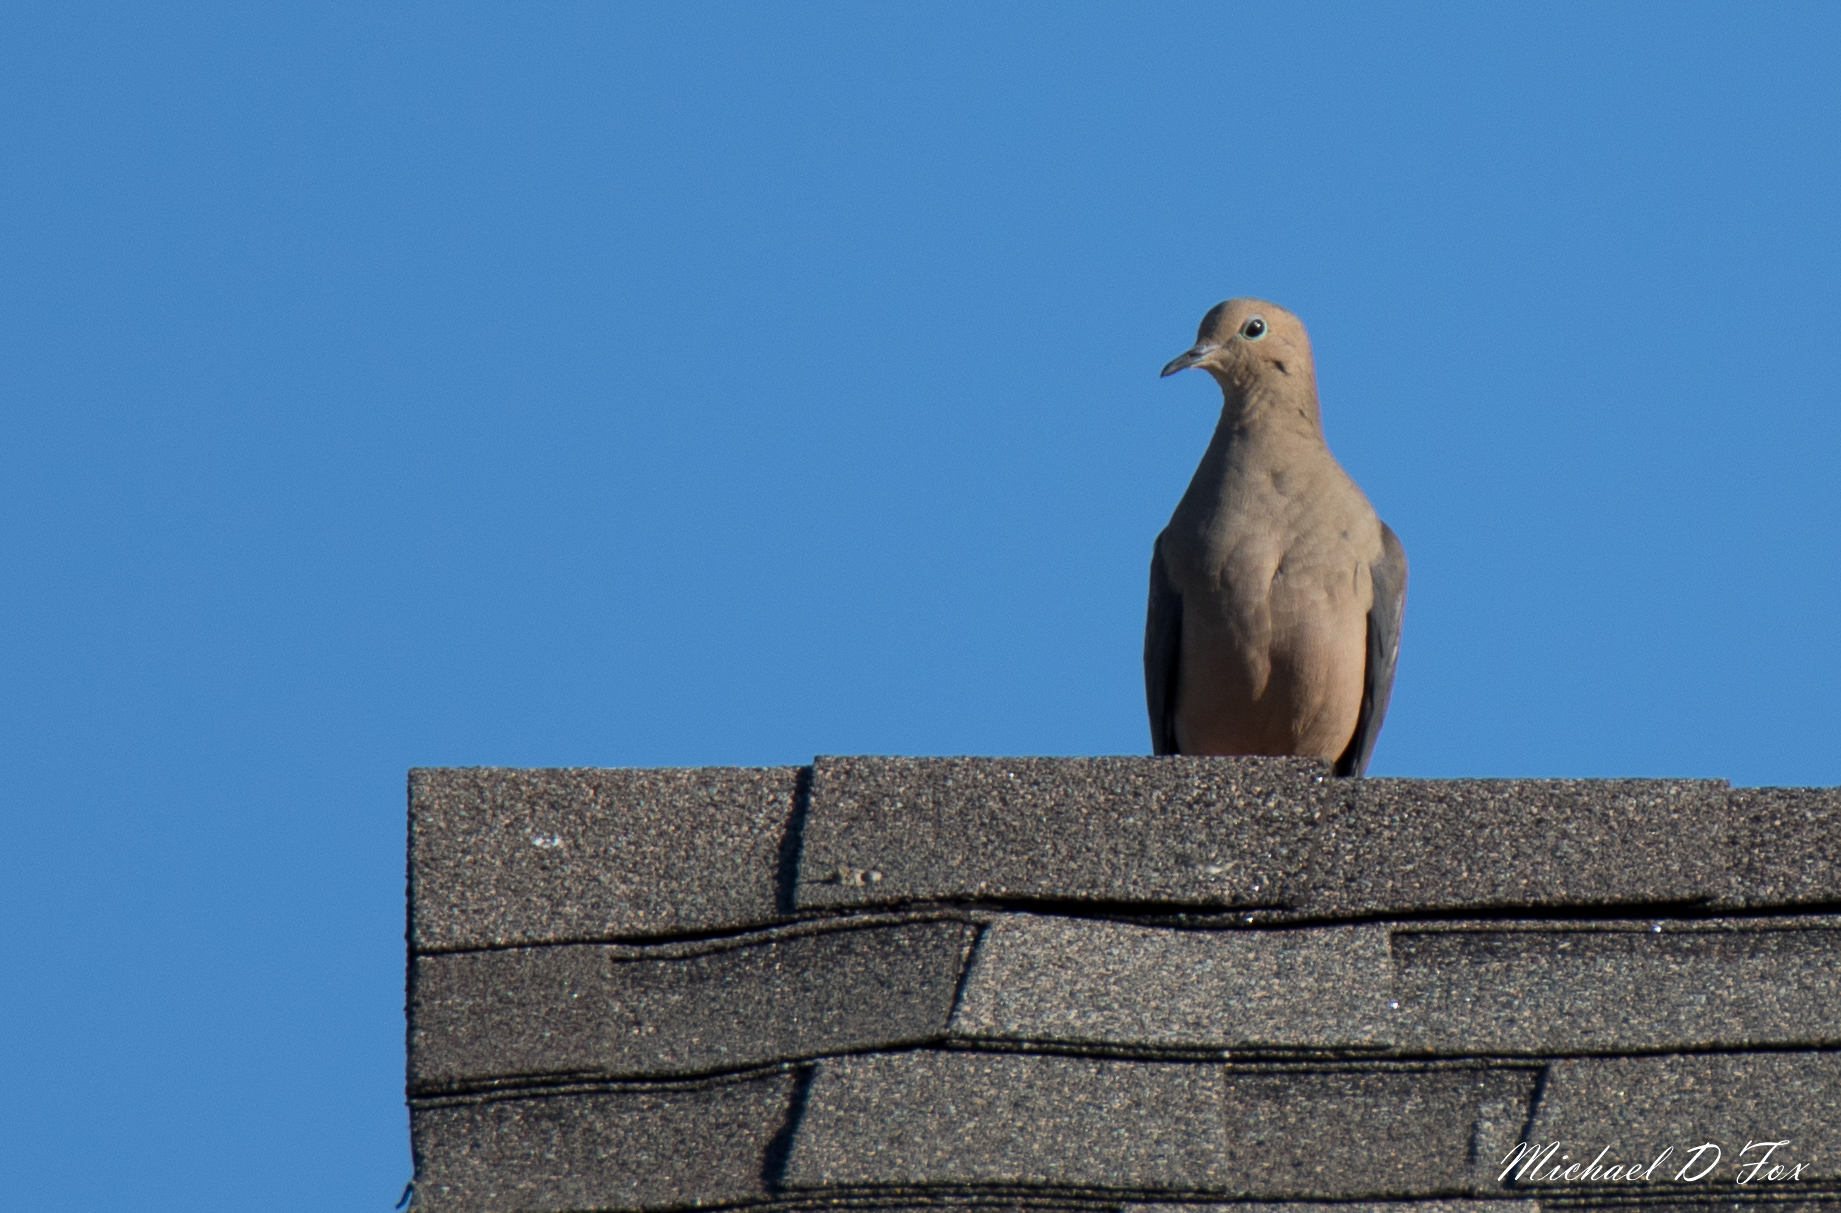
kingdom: Animalia
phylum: Chordata
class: Aves
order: Columbiformes
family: Columbidae
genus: Zenaida
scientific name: Zenaida macroura
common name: Mourning dove
